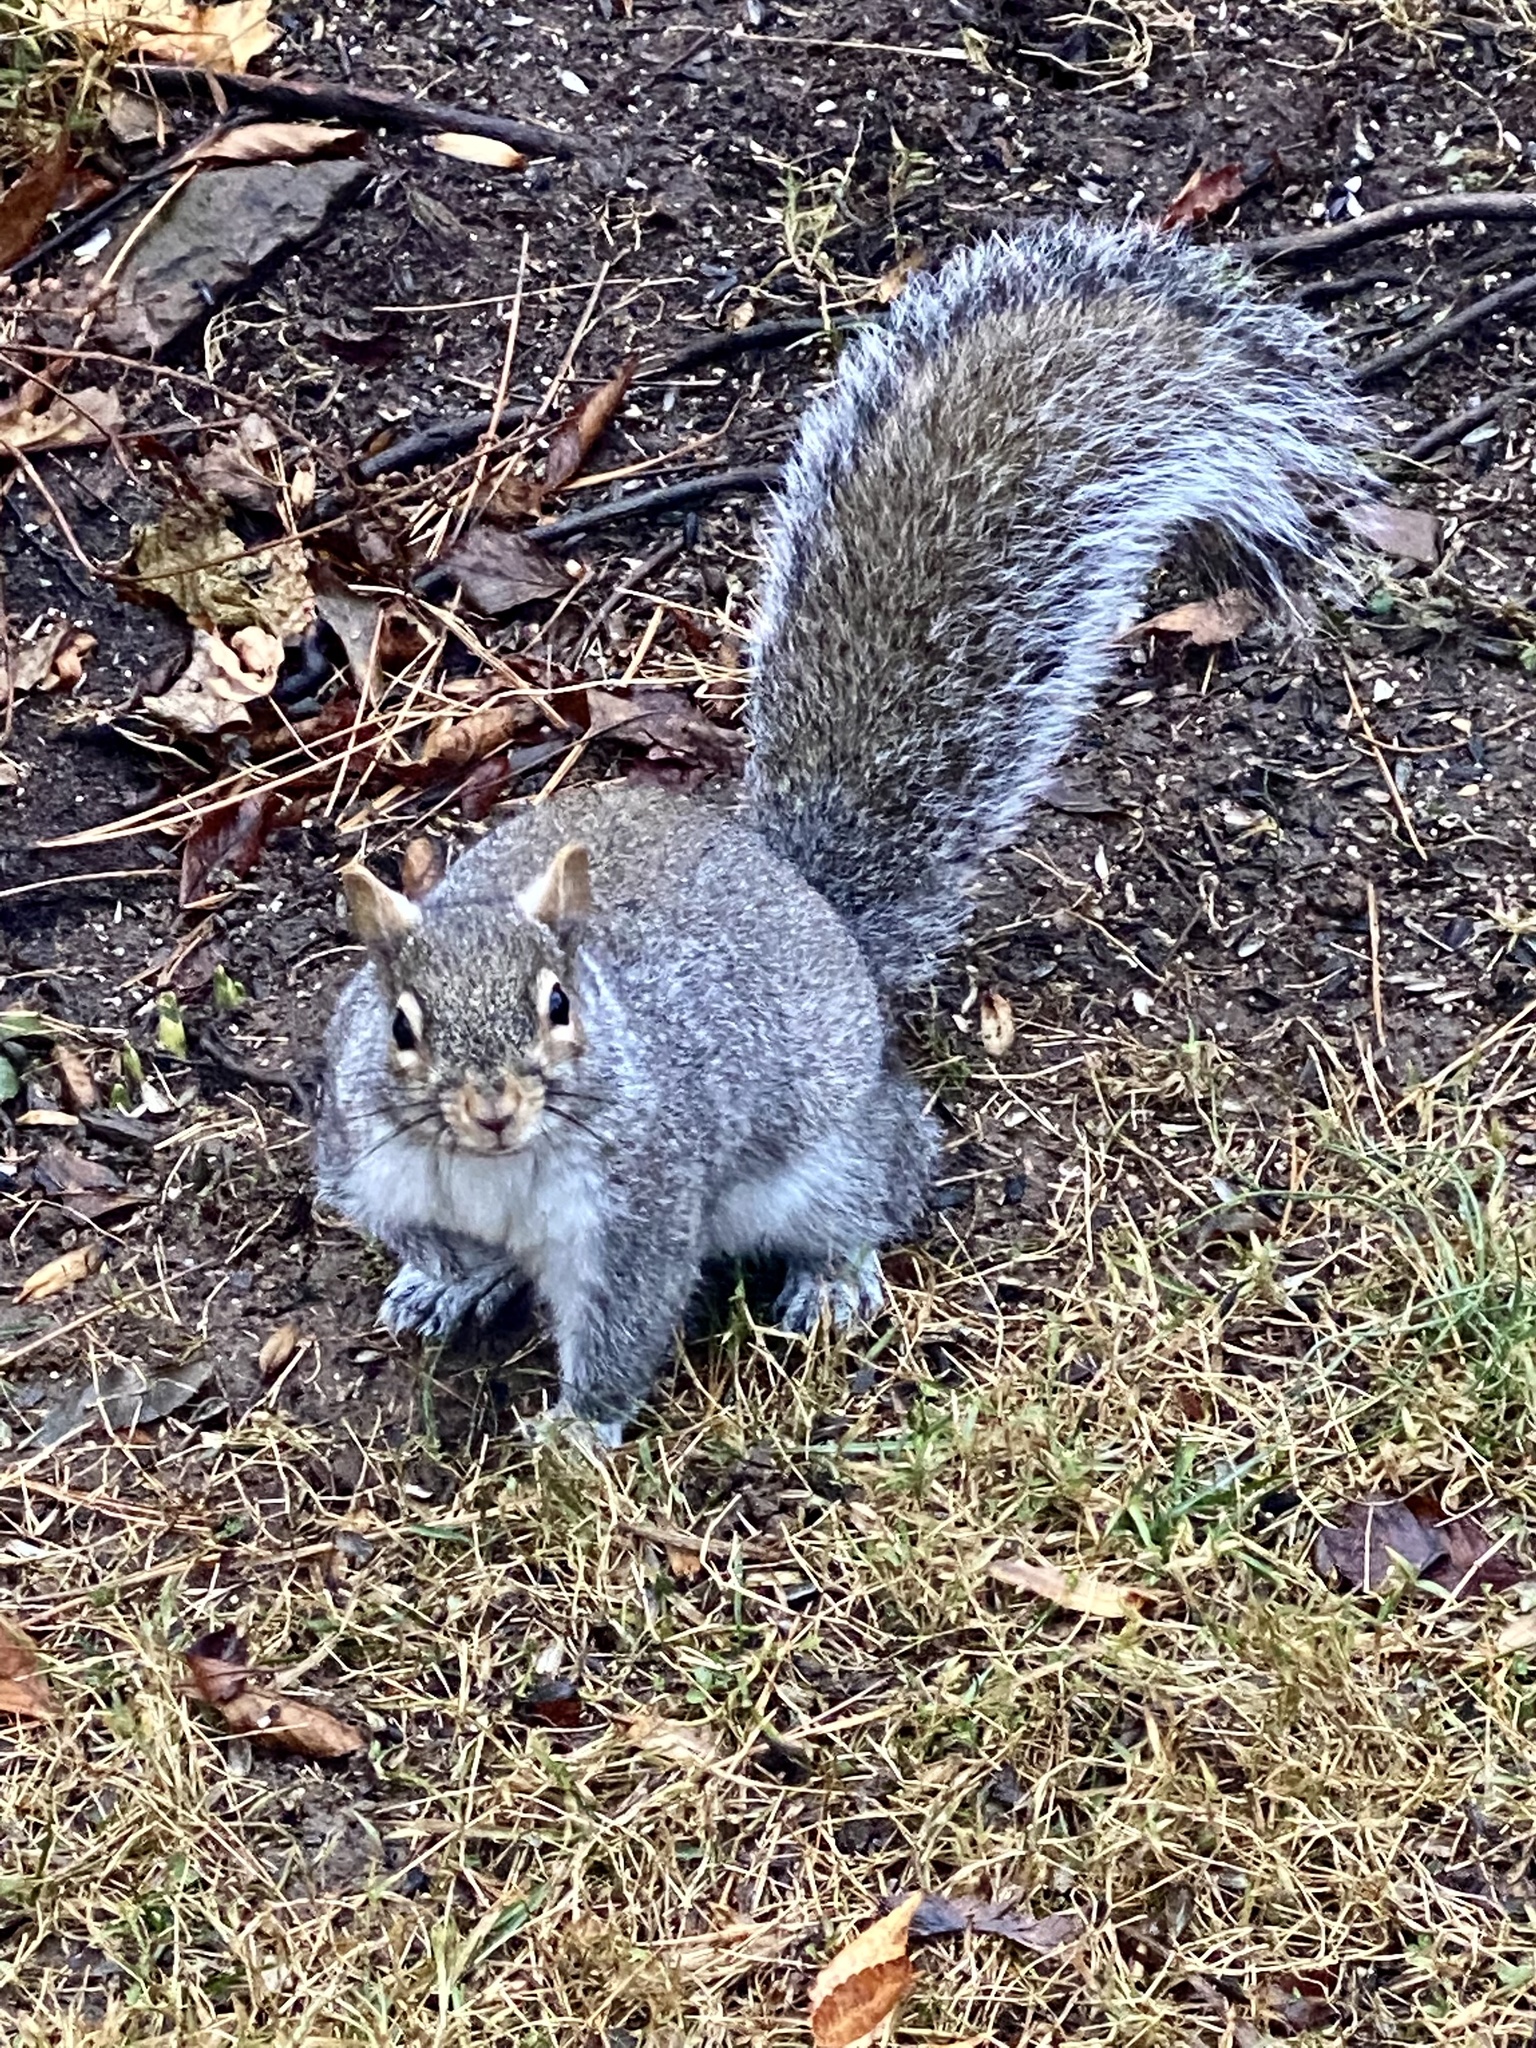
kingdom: Animalia
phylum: Chordata
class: Mammalia
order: Rodentia
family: Sciuridae
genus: Sciurus
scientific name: Sciurus carolinensis
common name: Eastern gray squirrel
